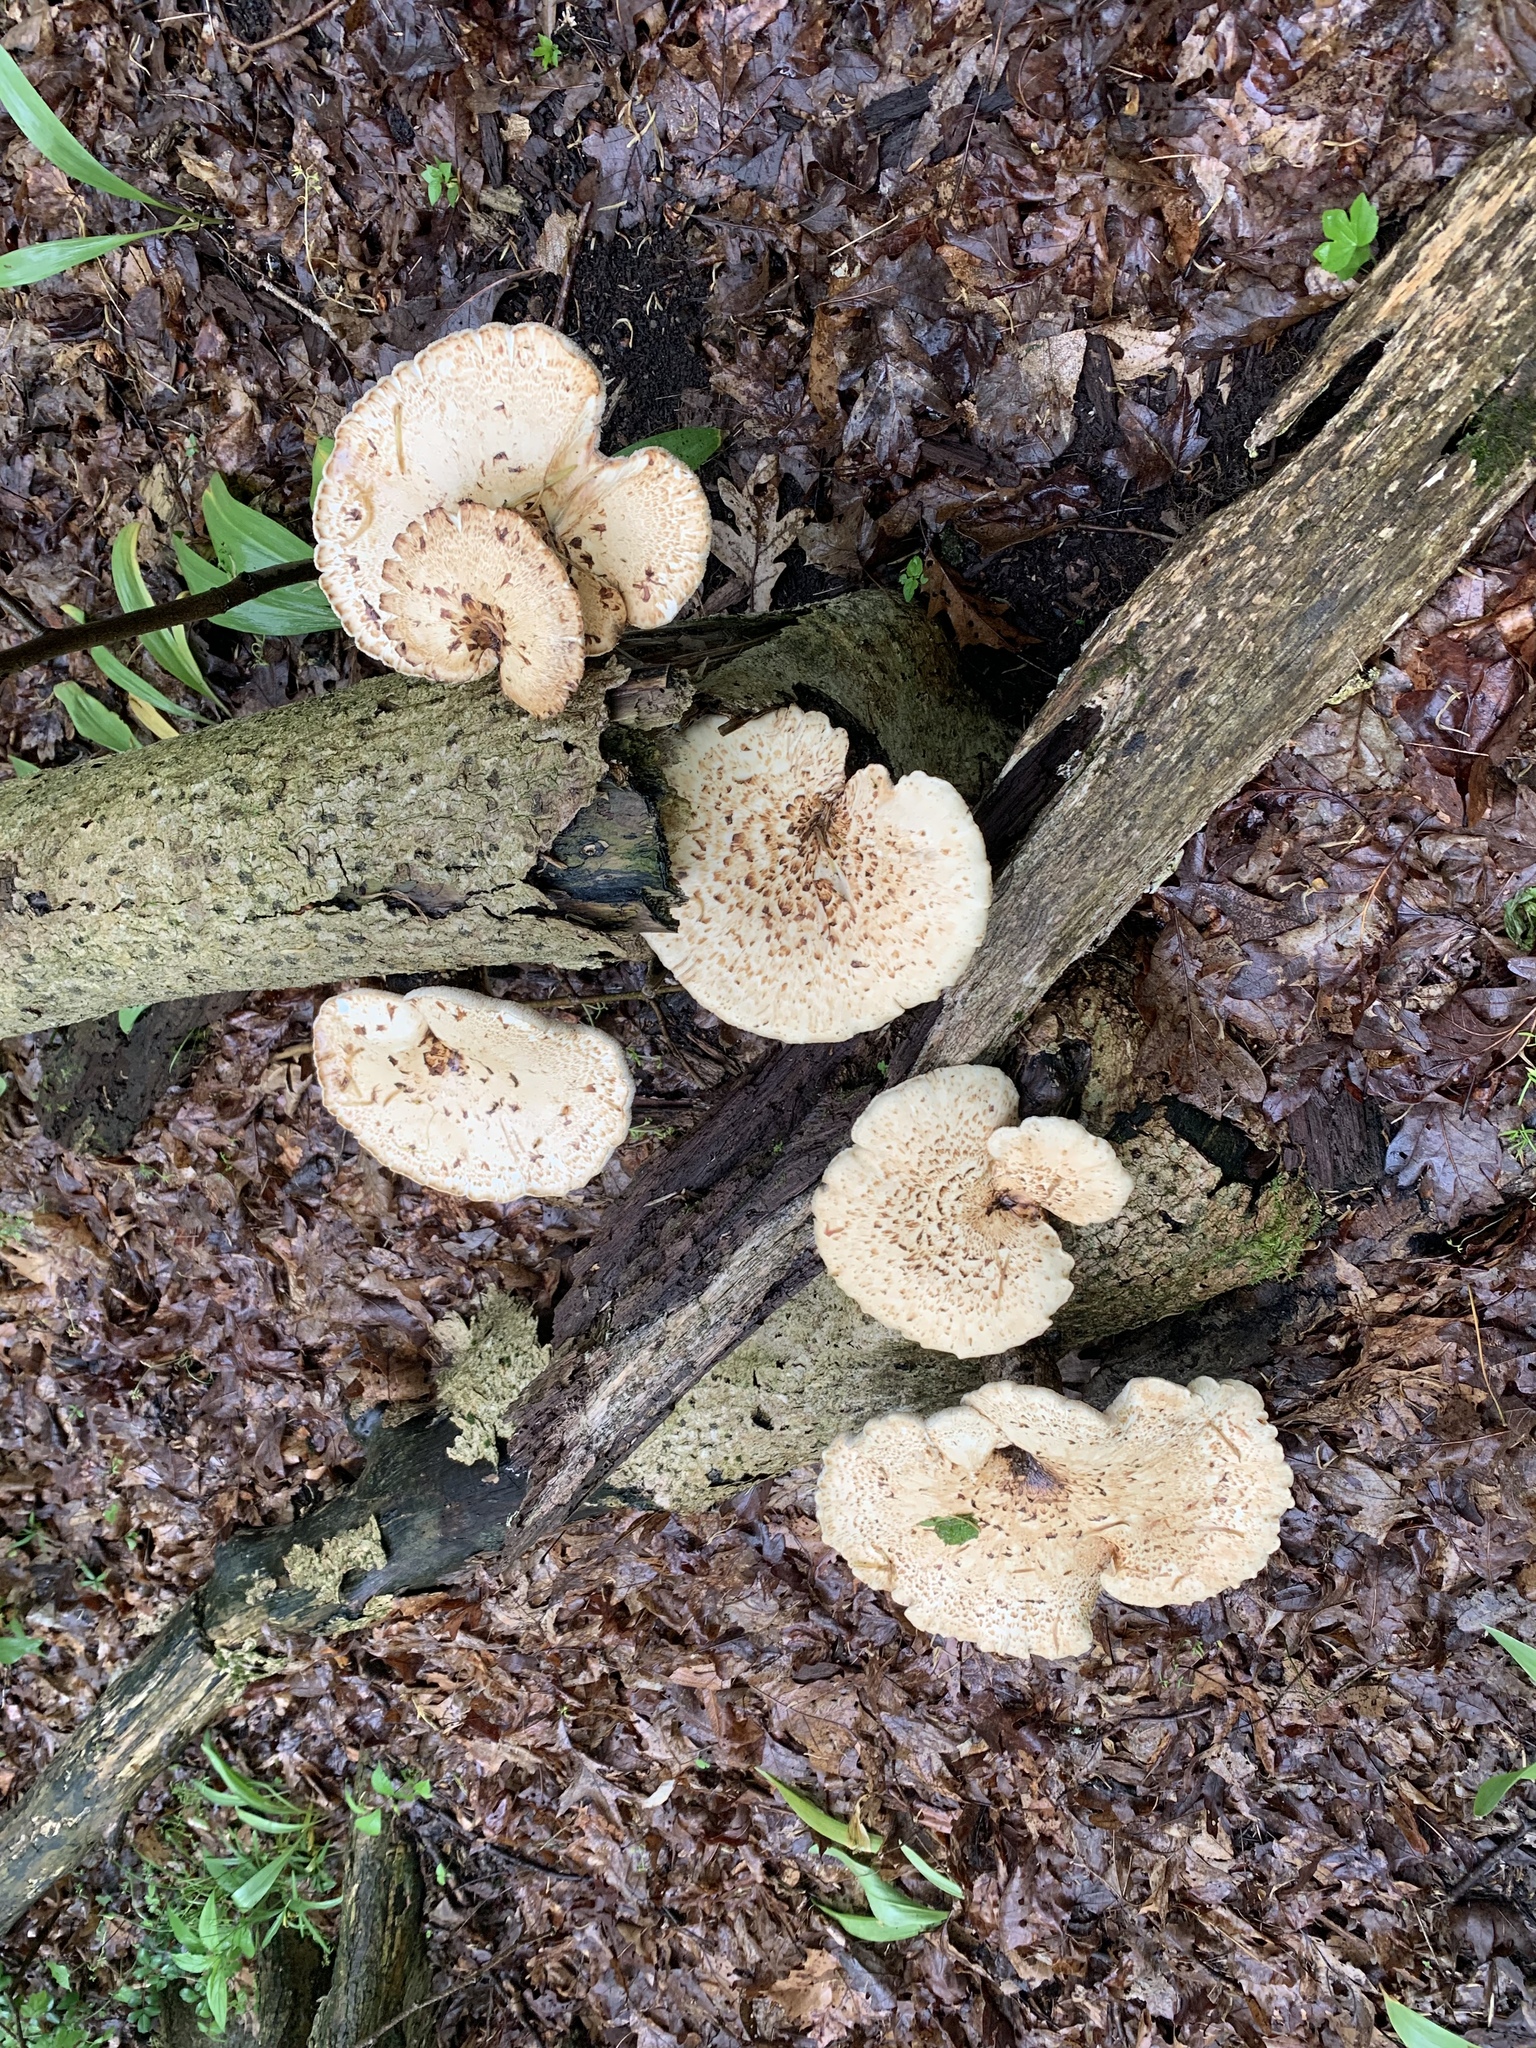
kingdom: Fungi
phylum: Basidiomycota
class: Agaricomycetes
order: Polyporales
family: Polyporaceae
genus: Cerioporus
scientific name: Cerioporus squamosus
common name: Dryad's saddle
